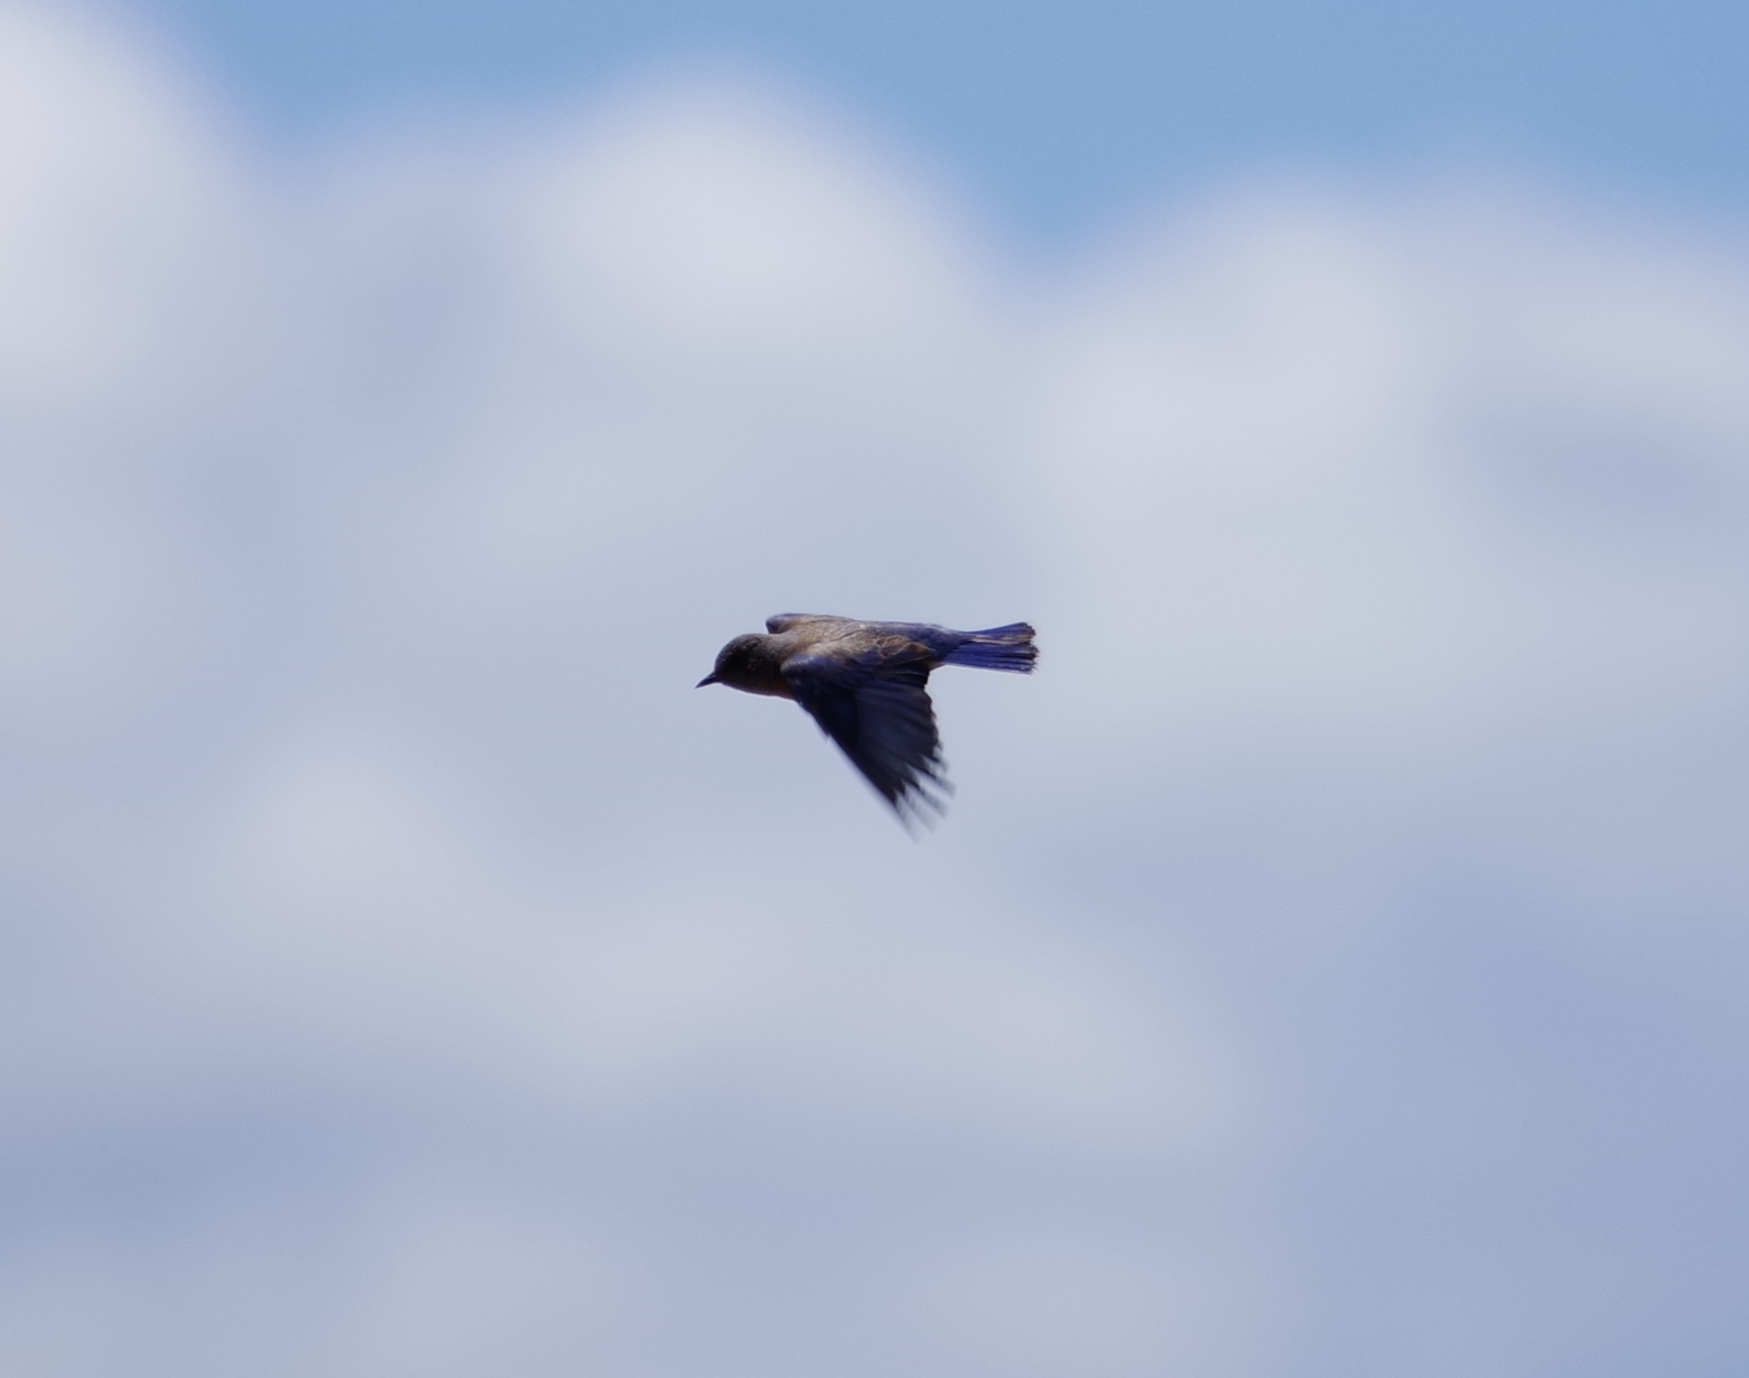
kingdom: Animalia
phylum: Chordata
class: Aves
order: Passeriformes
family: Turdidae
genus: Sialia
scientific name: Sialia mexicana
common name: Western bluebird
